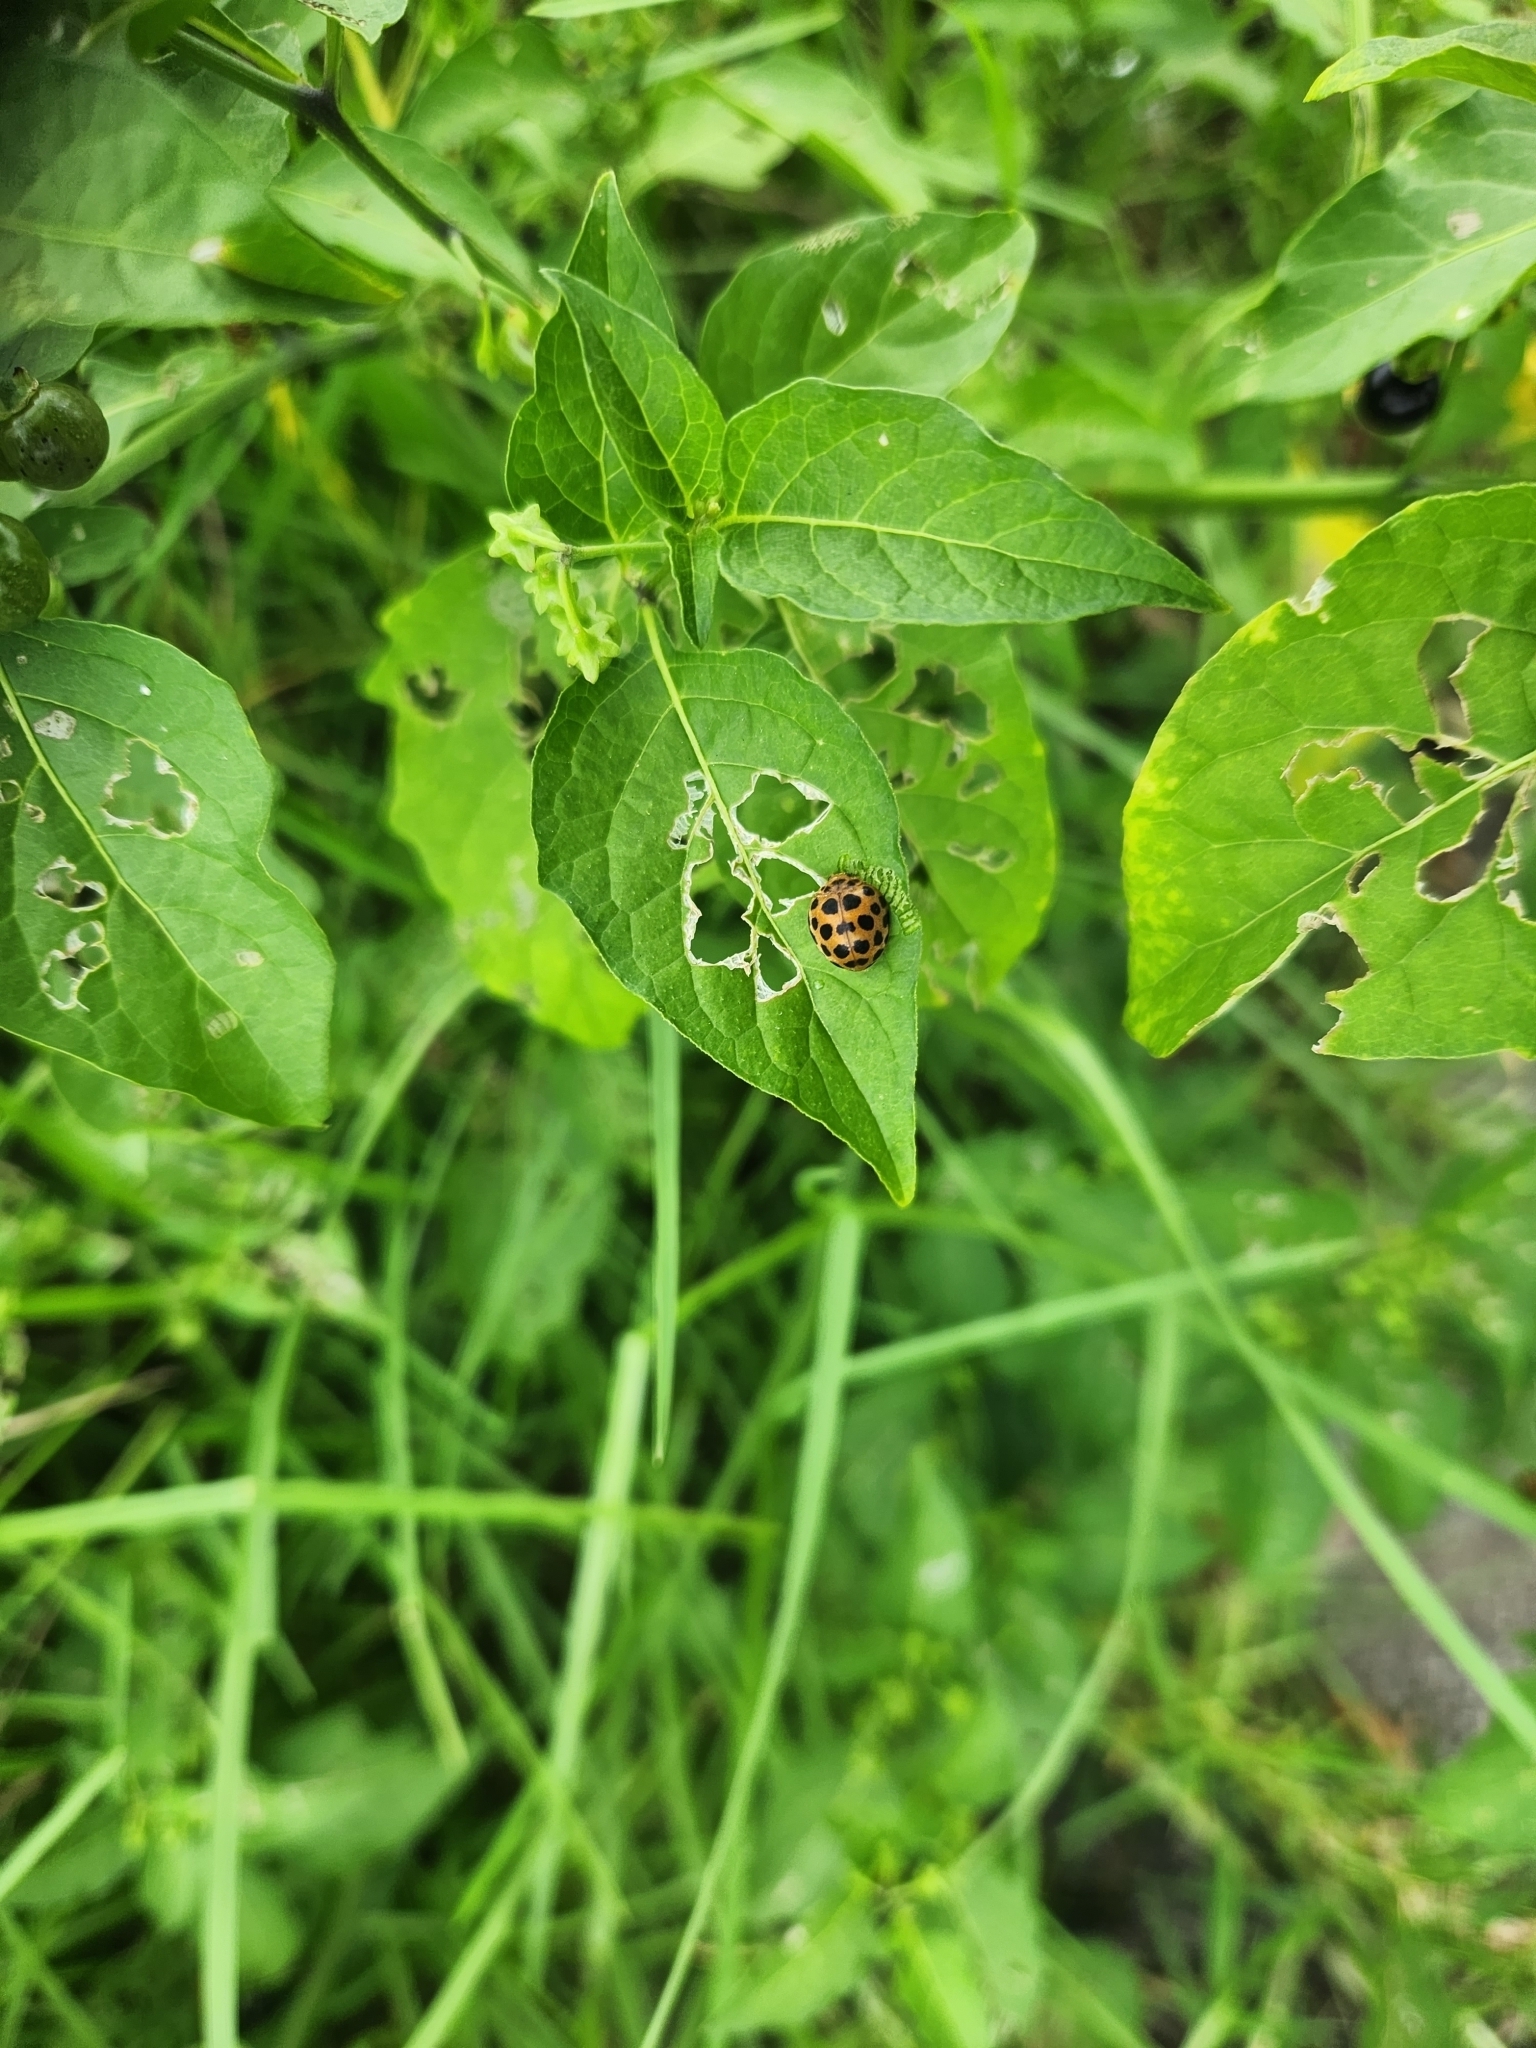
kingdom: Animalia
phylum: Arthropoda
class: Insecta
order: Coleoptera
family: Coccinellidae
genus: Henosepilachna
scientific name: Henosepilachna vigintioctopunctata
